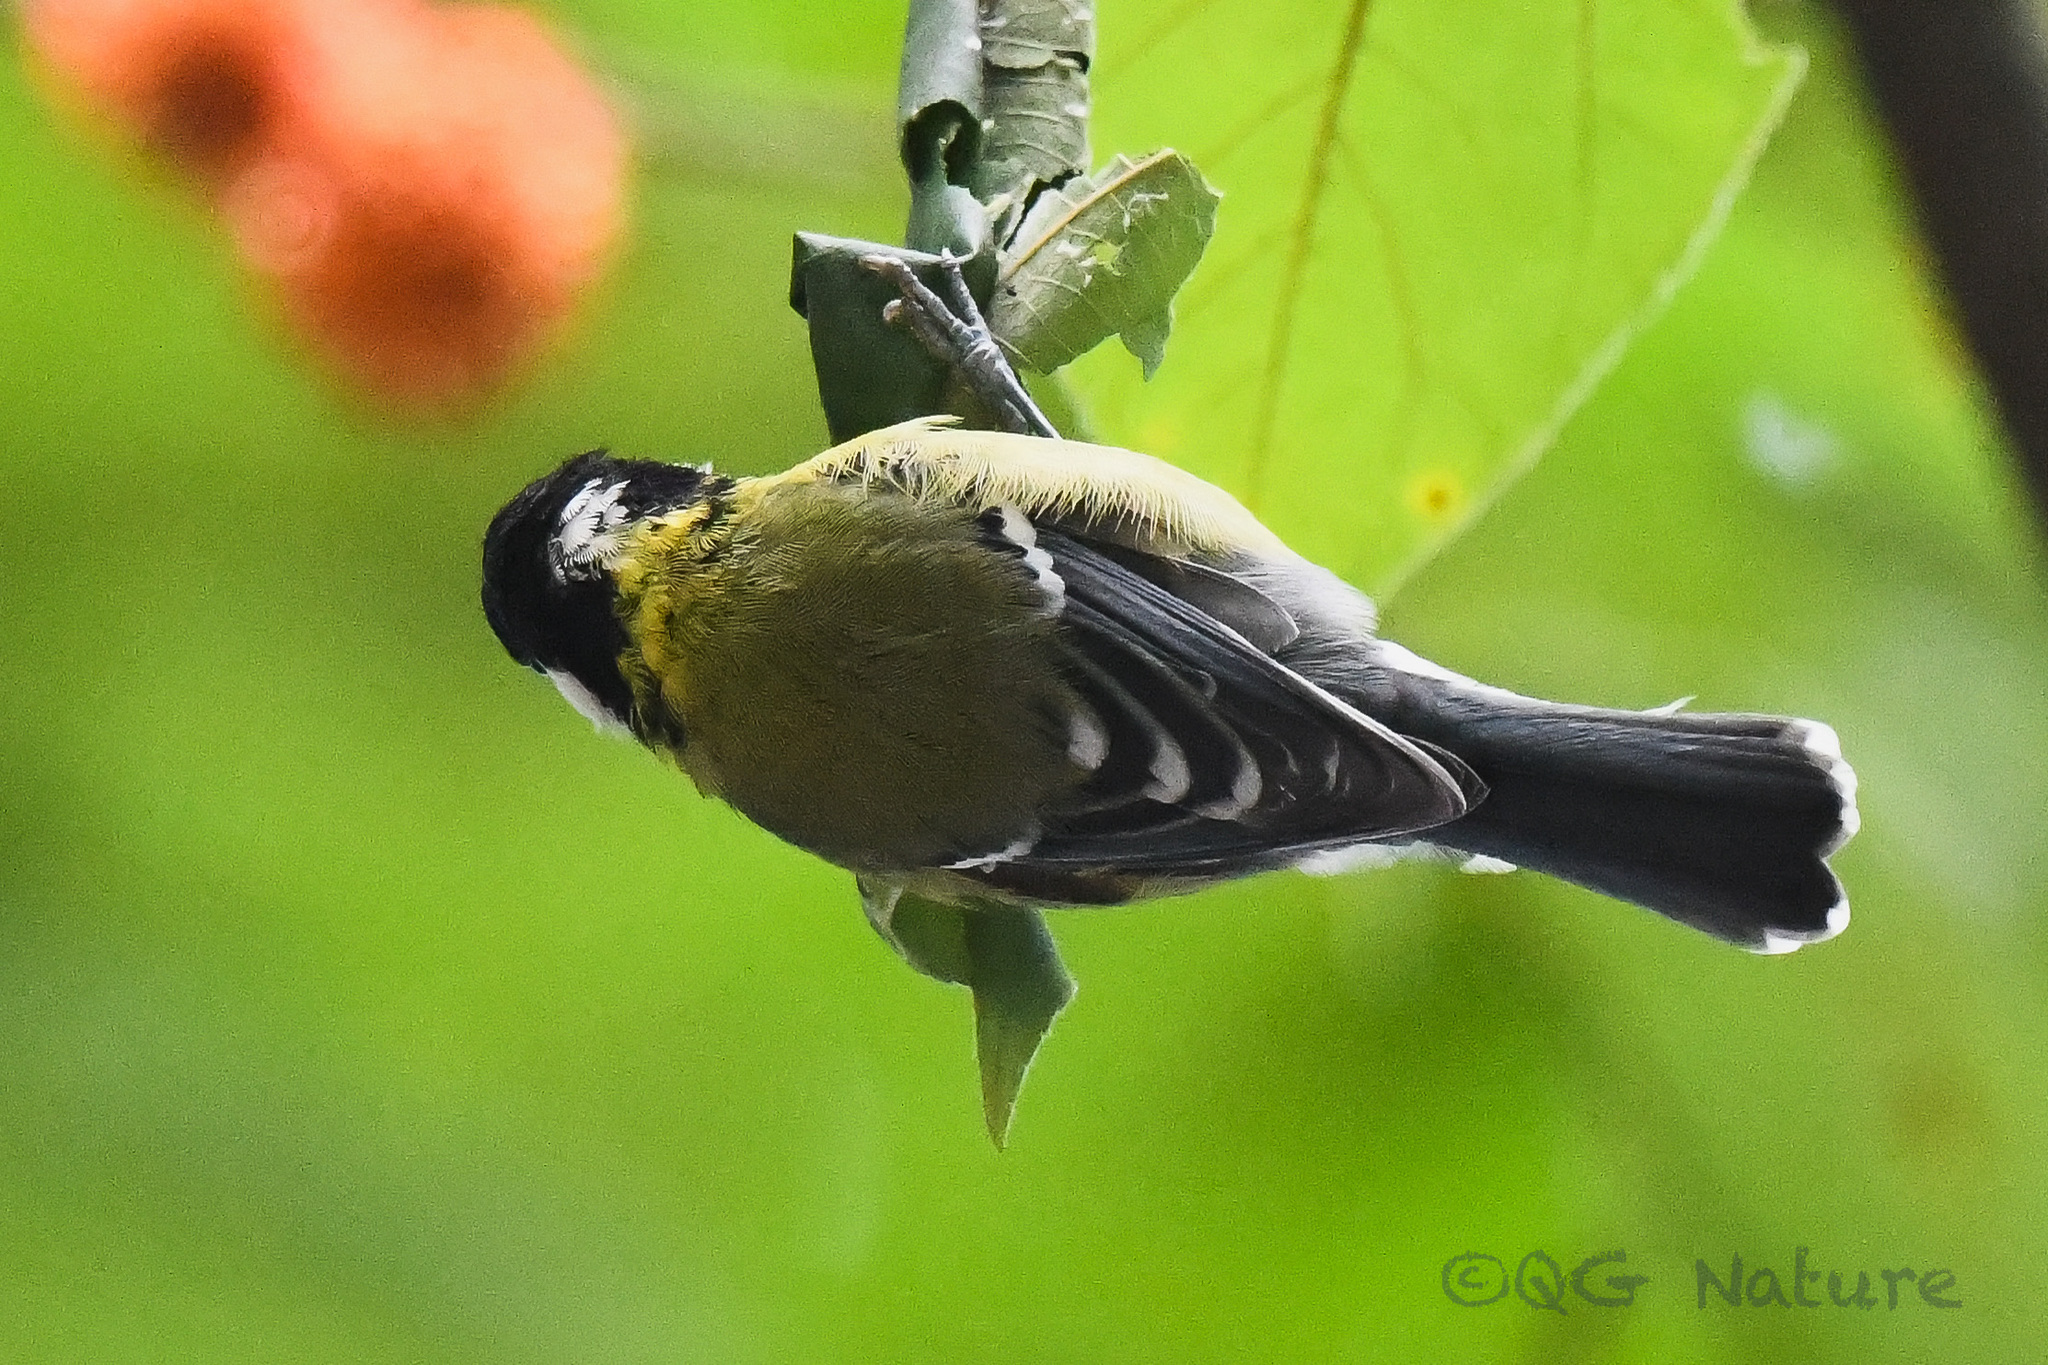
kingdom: Animalia
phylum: Chordata
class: Aves
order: Passeriformes
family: Paridae
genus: Parus
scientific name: Parus monticolus
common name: Green-backed tit
